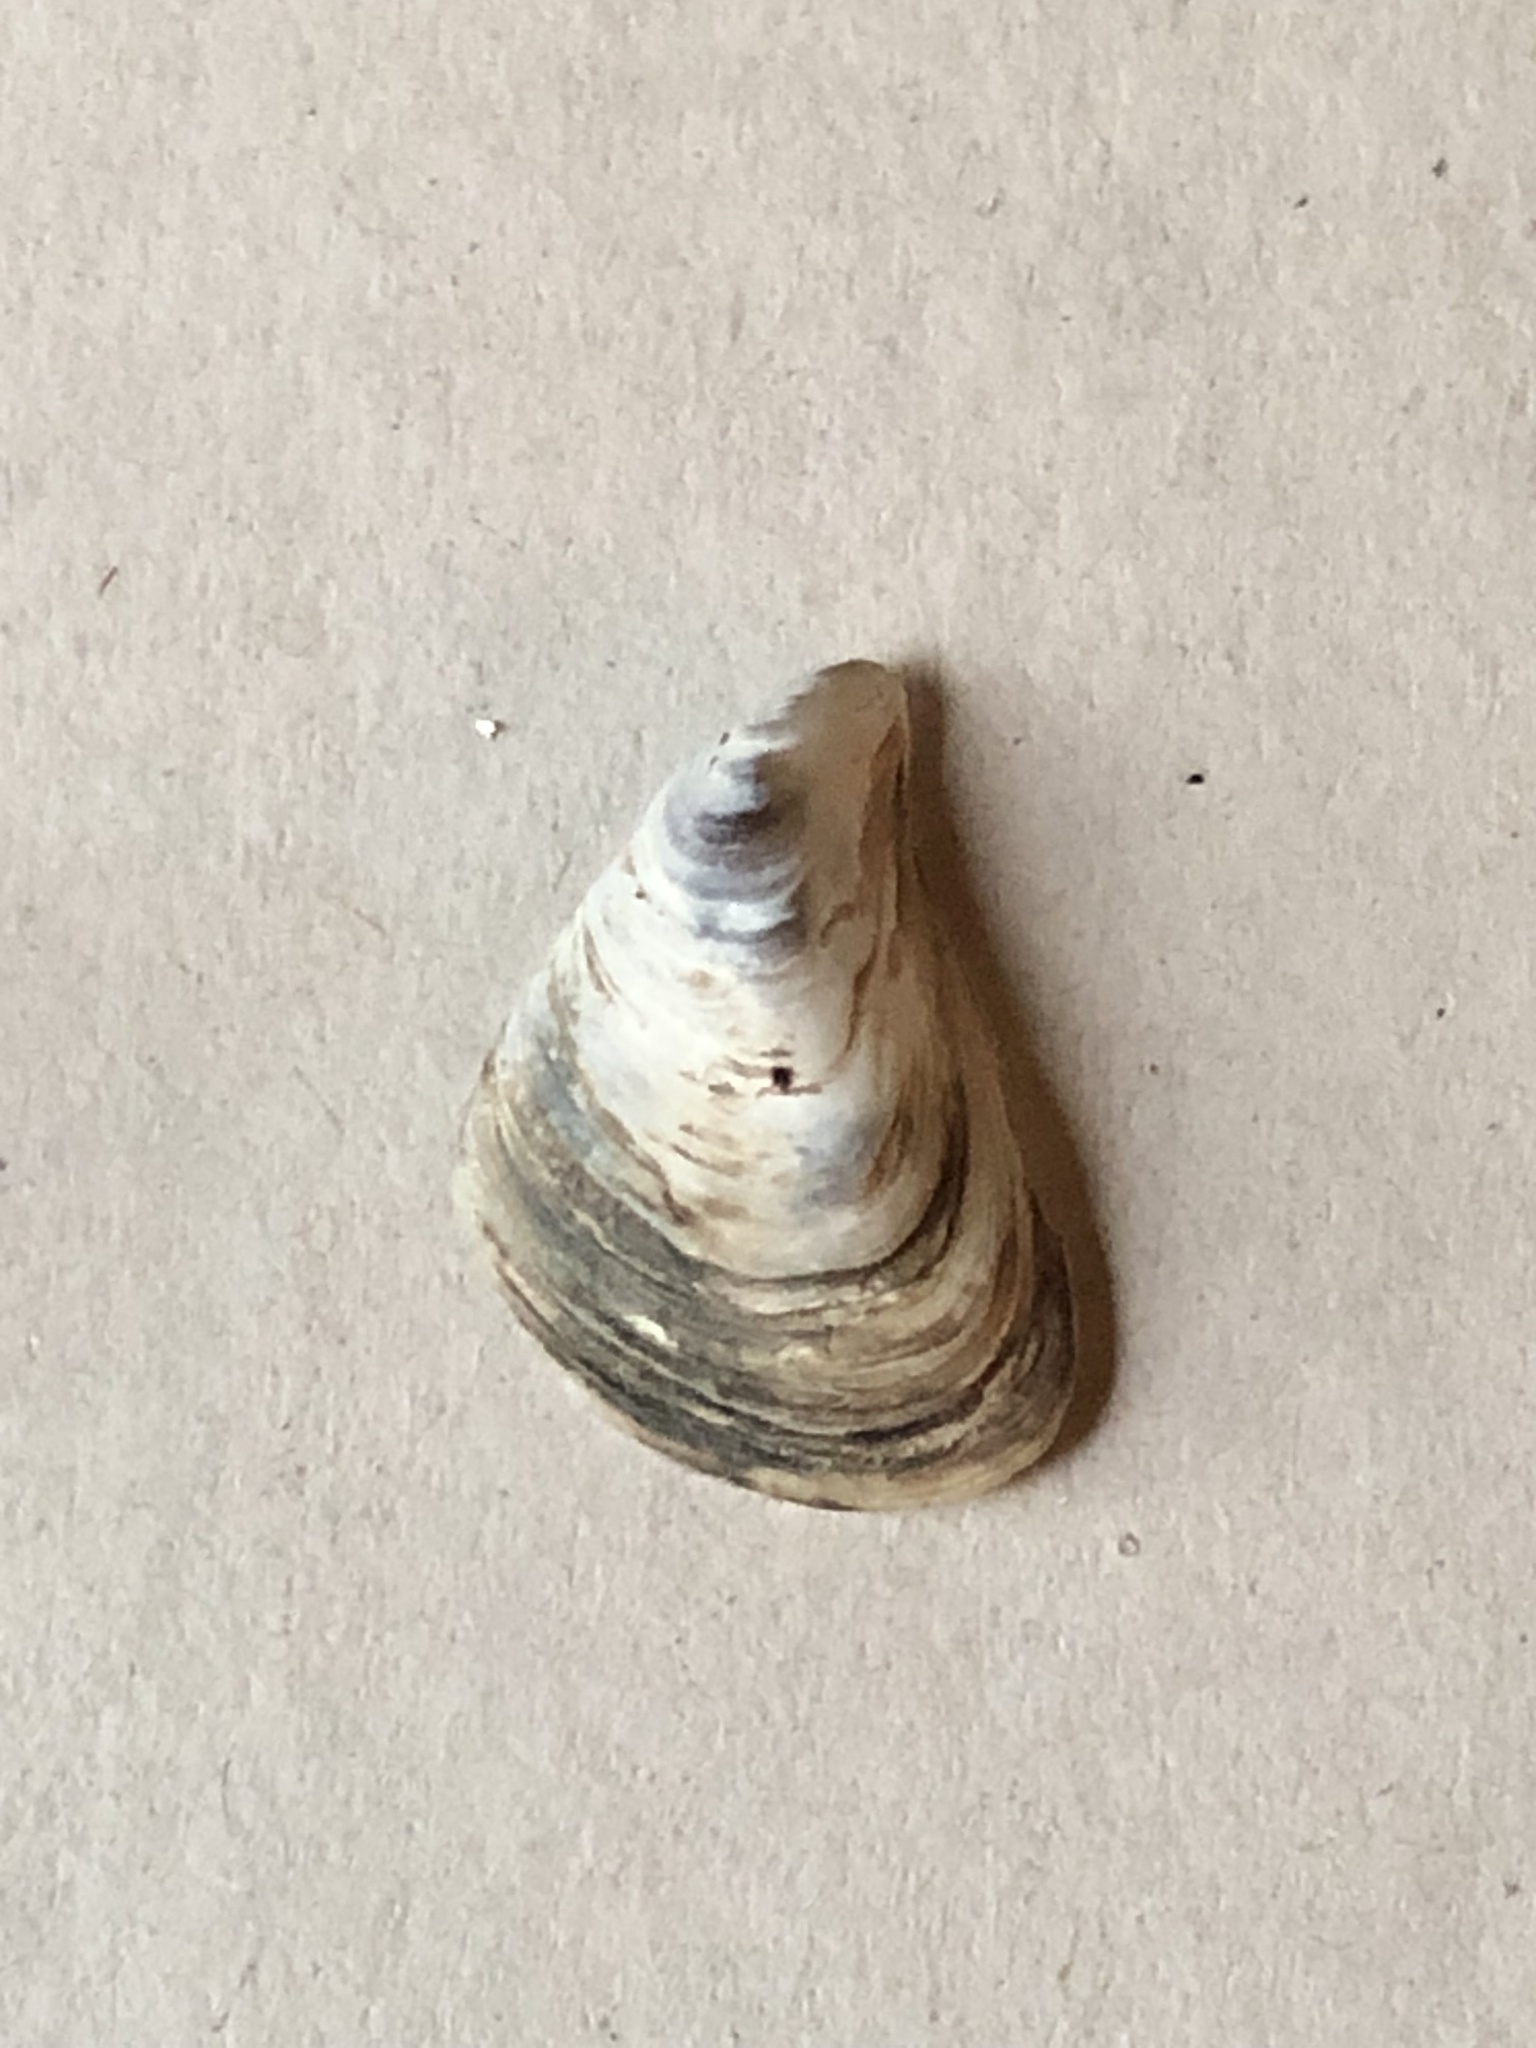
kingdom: Animalia
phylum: Mollusca
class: Bivalvia
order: Myida
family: Dreissenidae
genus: Dreissena
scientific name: Dreissena bugensis
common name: Quagga mussel
